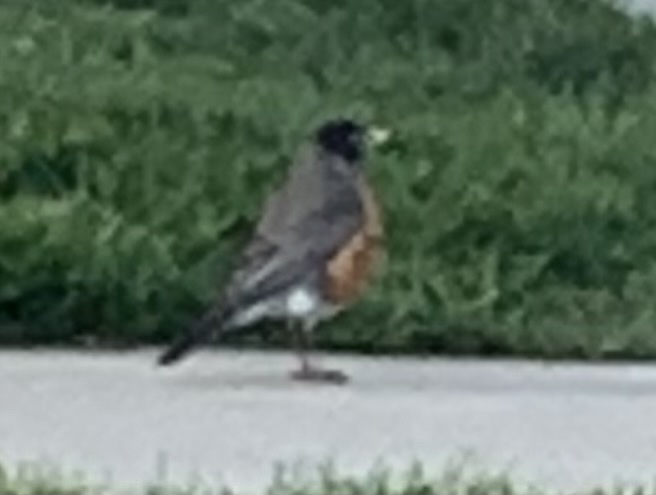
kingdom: Animalia
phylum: Chordata
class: Aves
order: Passeriformes
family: Turdidae
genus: Turdus
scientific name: Turdus migratorius
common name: American robin
